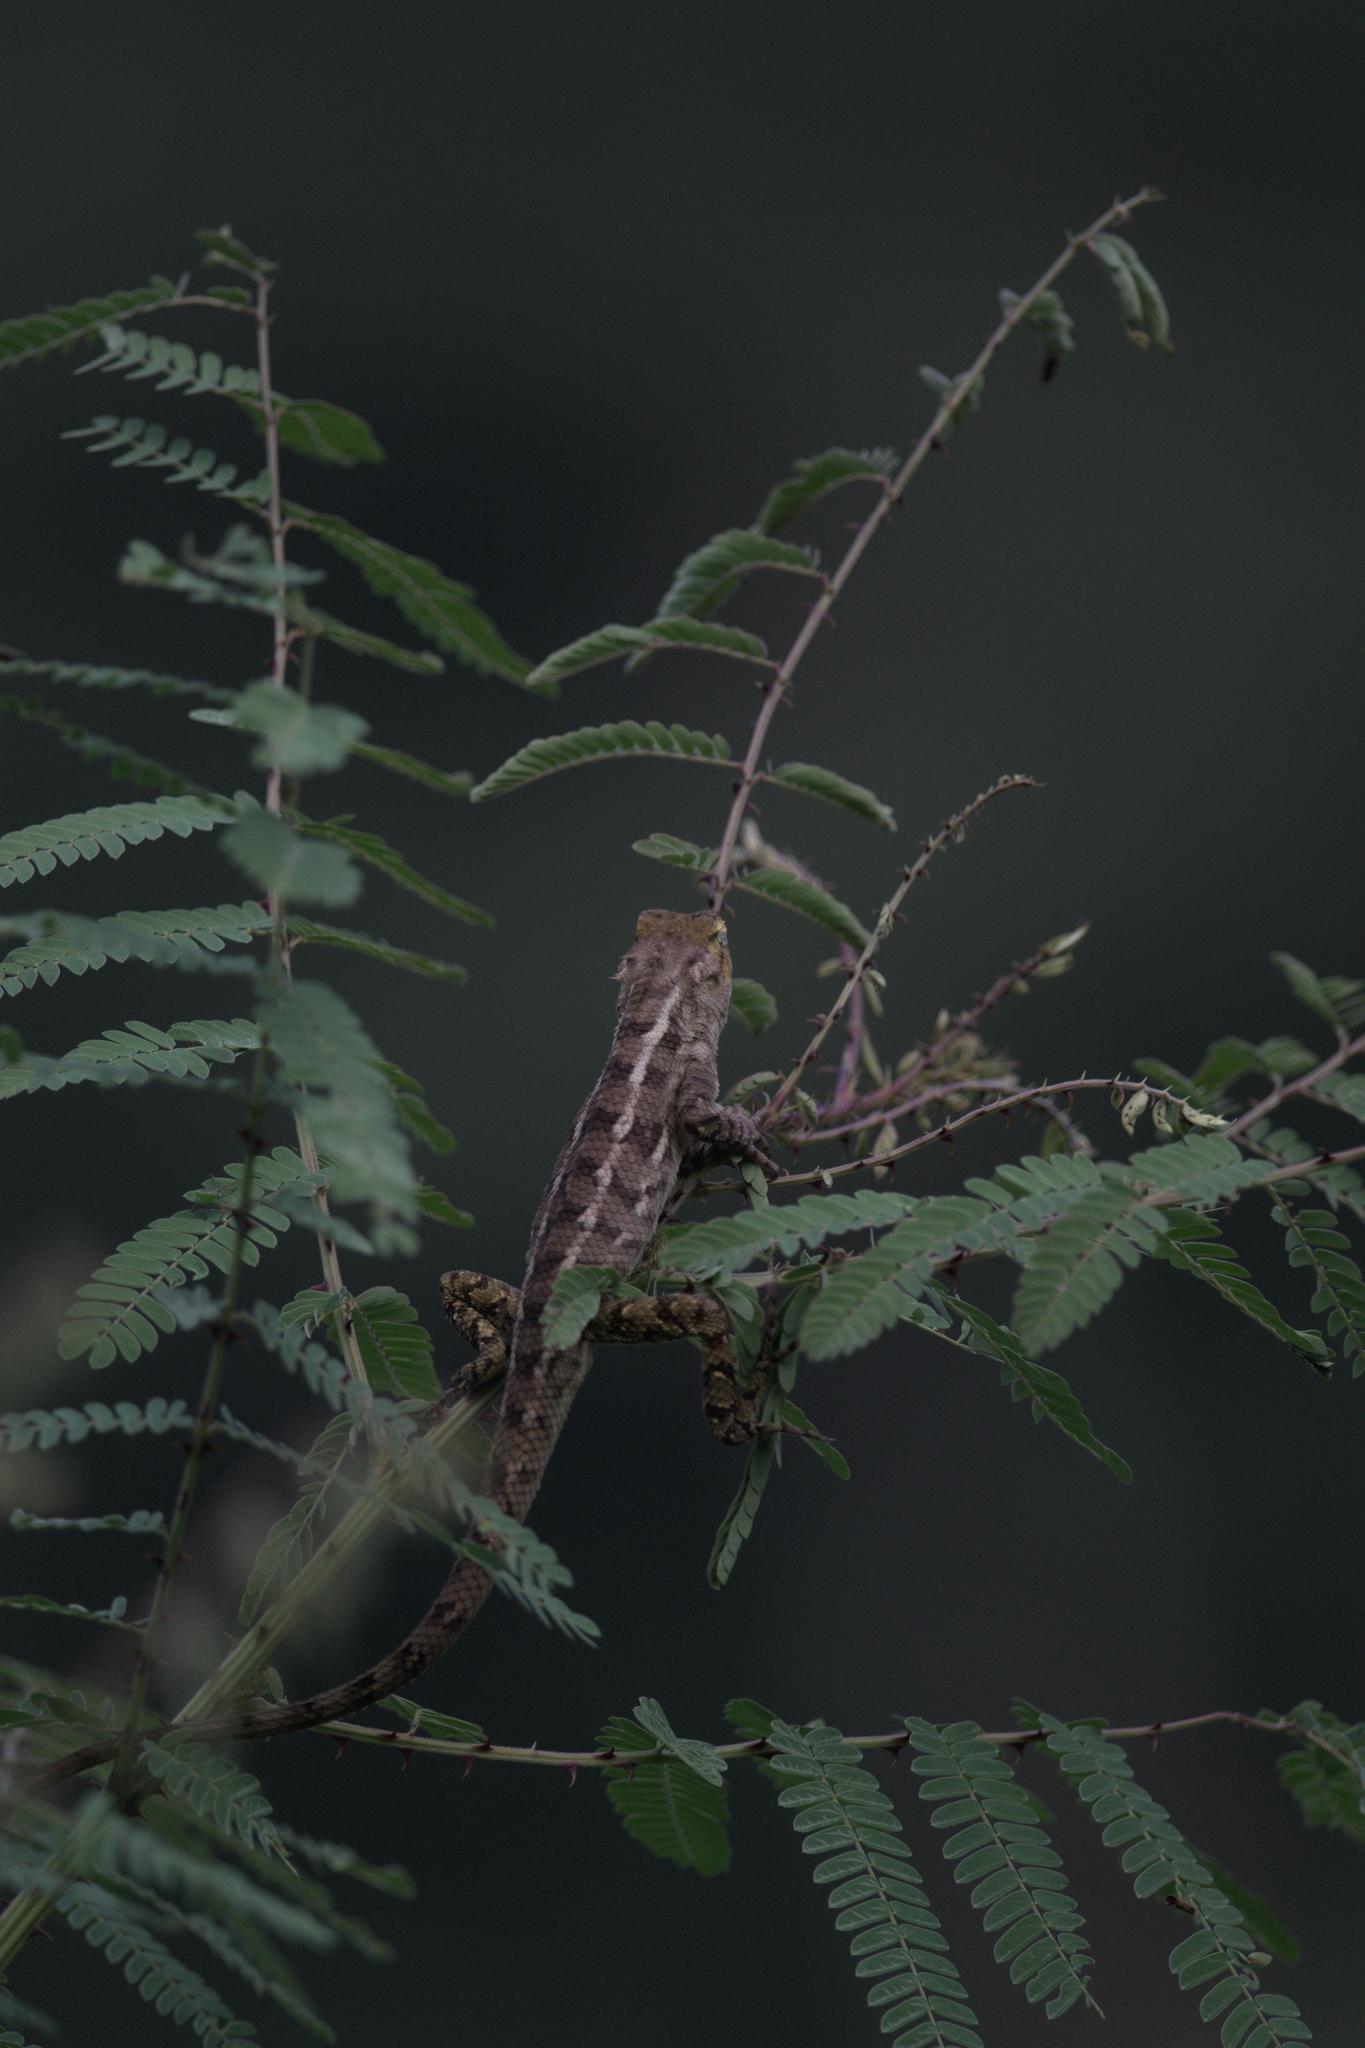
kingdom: Animalia
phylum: Chordata
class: Squamata
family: Agamidae
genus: Calotes
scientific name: Calotes versicolor
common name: Oriental garden lizard
